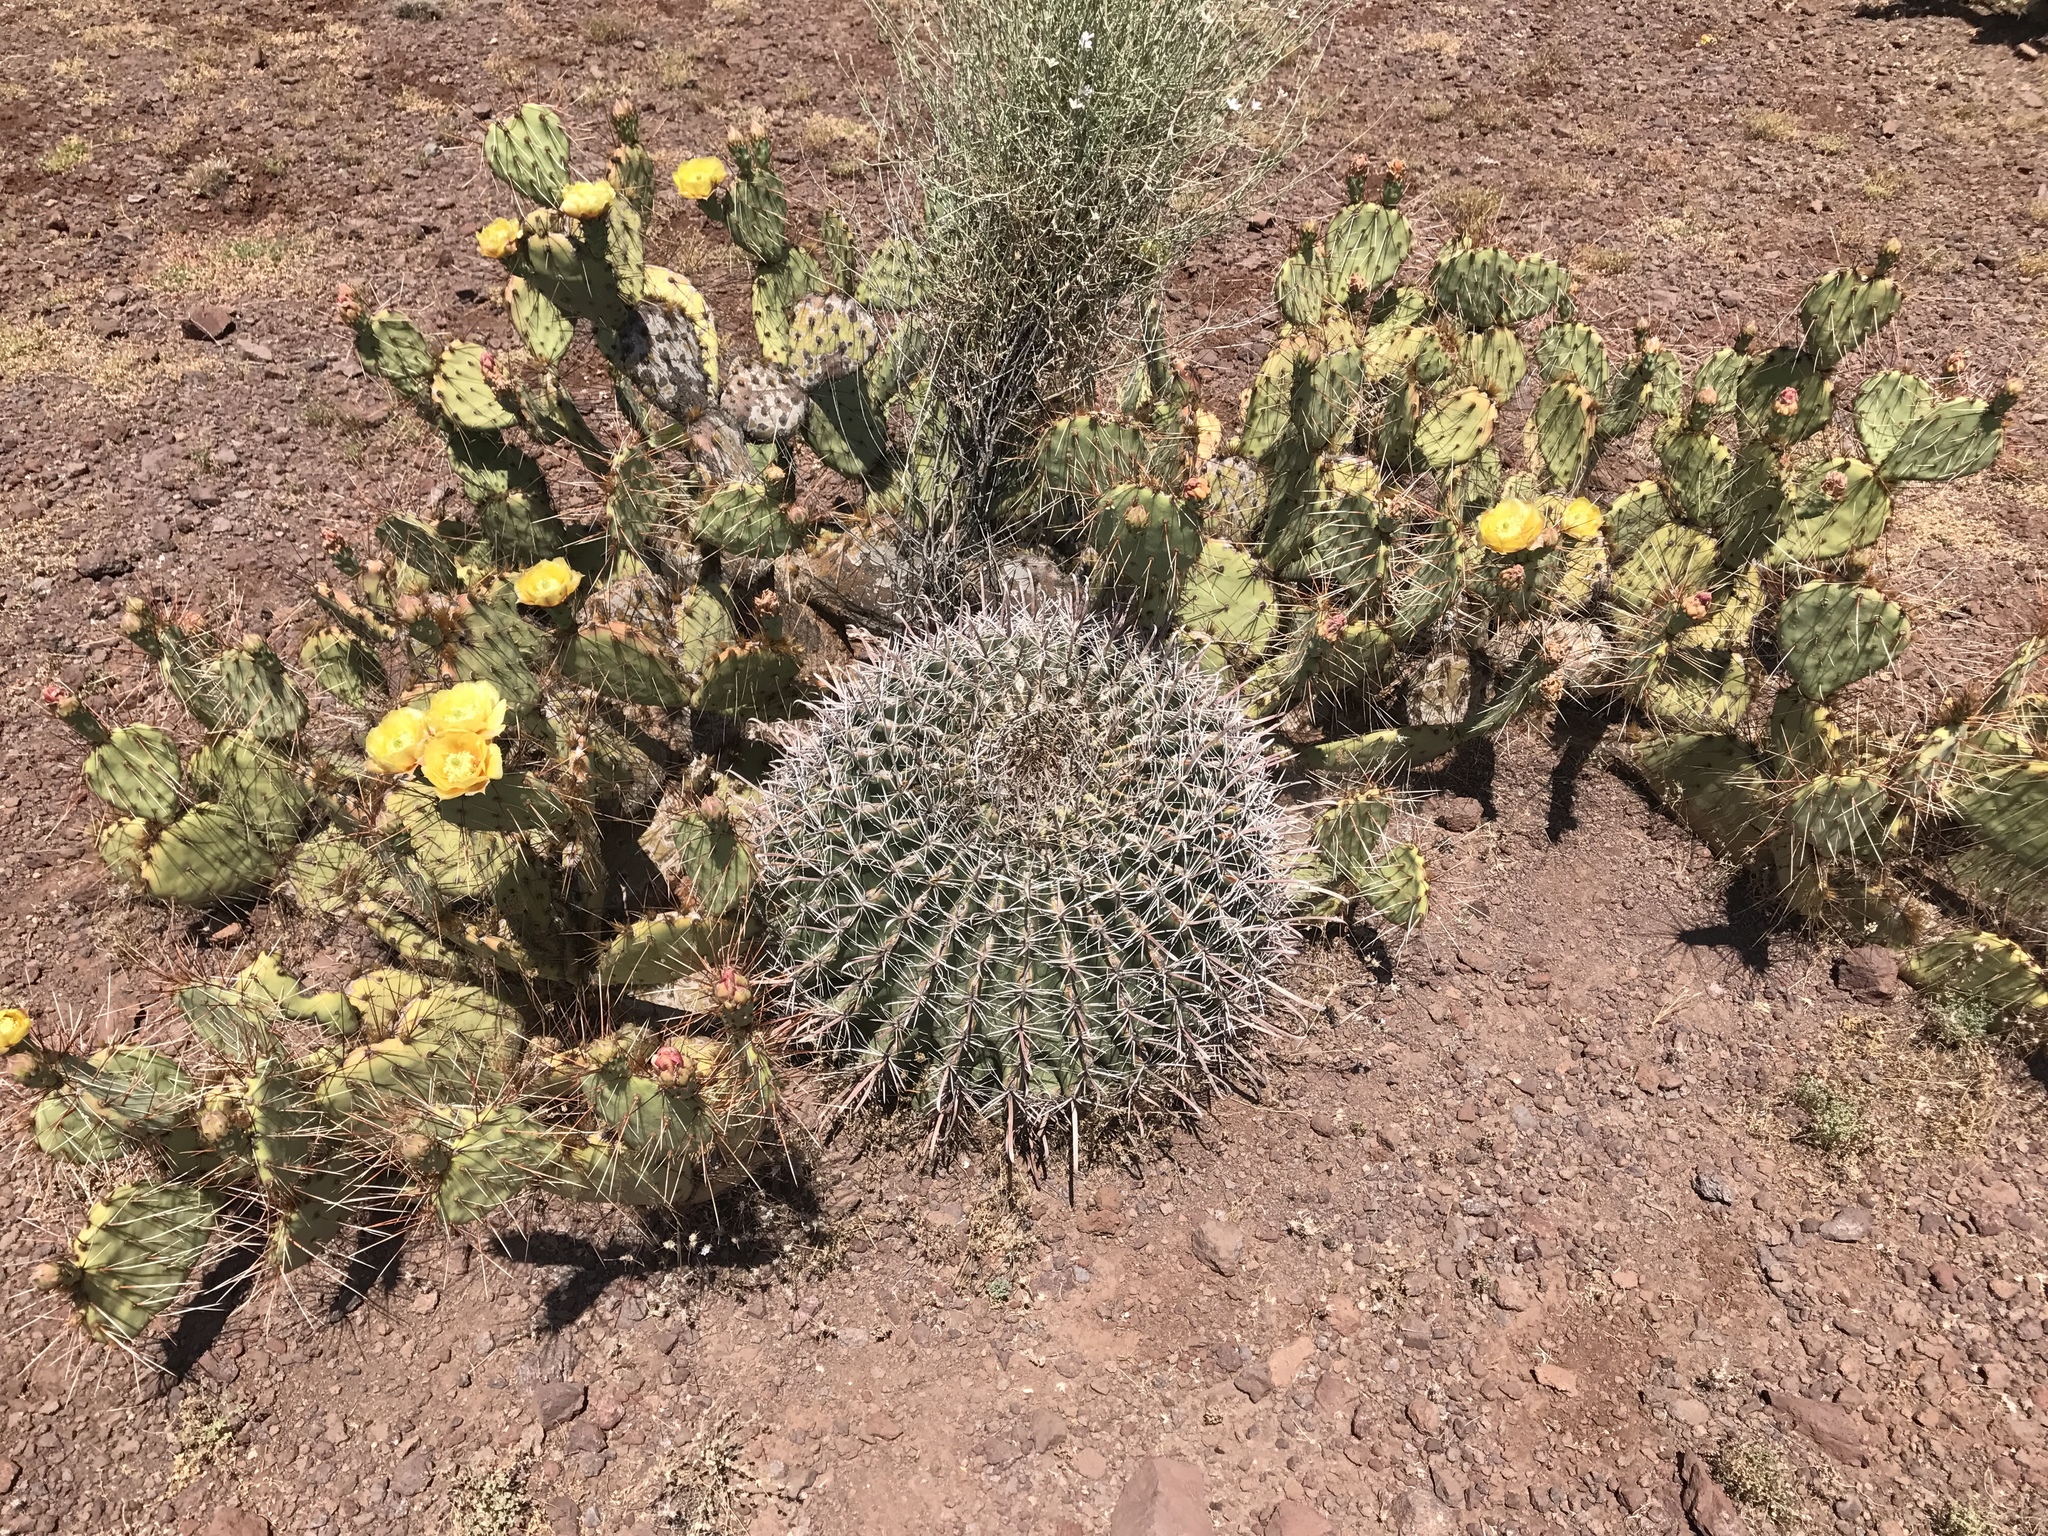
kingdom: Plantae
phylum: Tracheophyta
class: Magnoliopsida
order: Caryophyllales
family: Cactaceae
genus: Ferocactus
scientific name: Ferocactus wislizeni
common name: Candy barrel cactus
